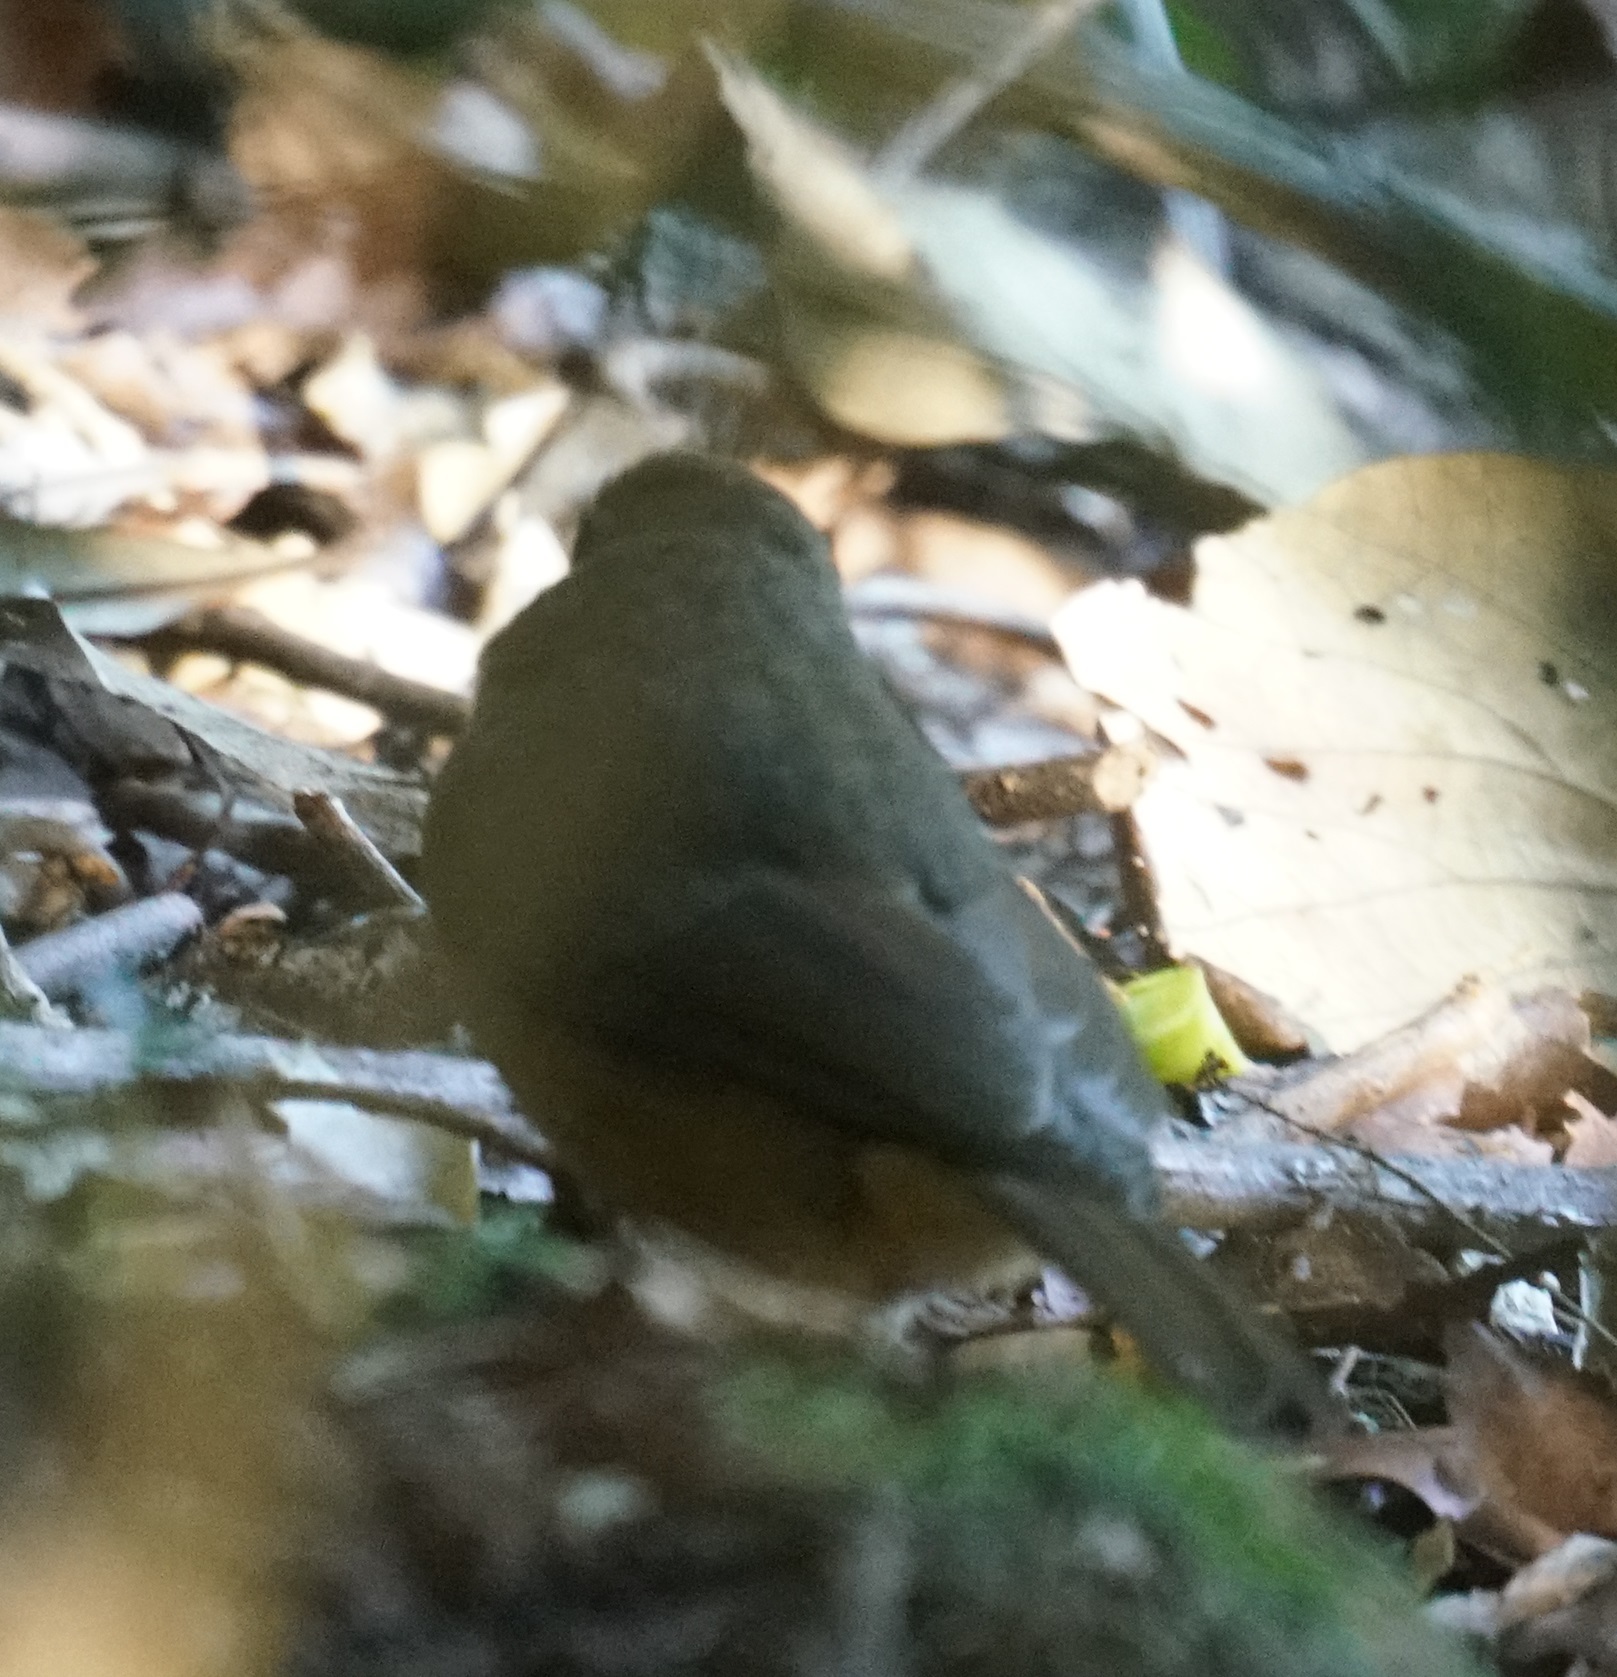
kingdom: Animalia
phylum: Chordata
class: Aves
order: Passeriformes
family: Pachycephalidae
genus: Colluricincla
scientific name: Colluricincla rufogaster
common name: Rufous shrikethrush
